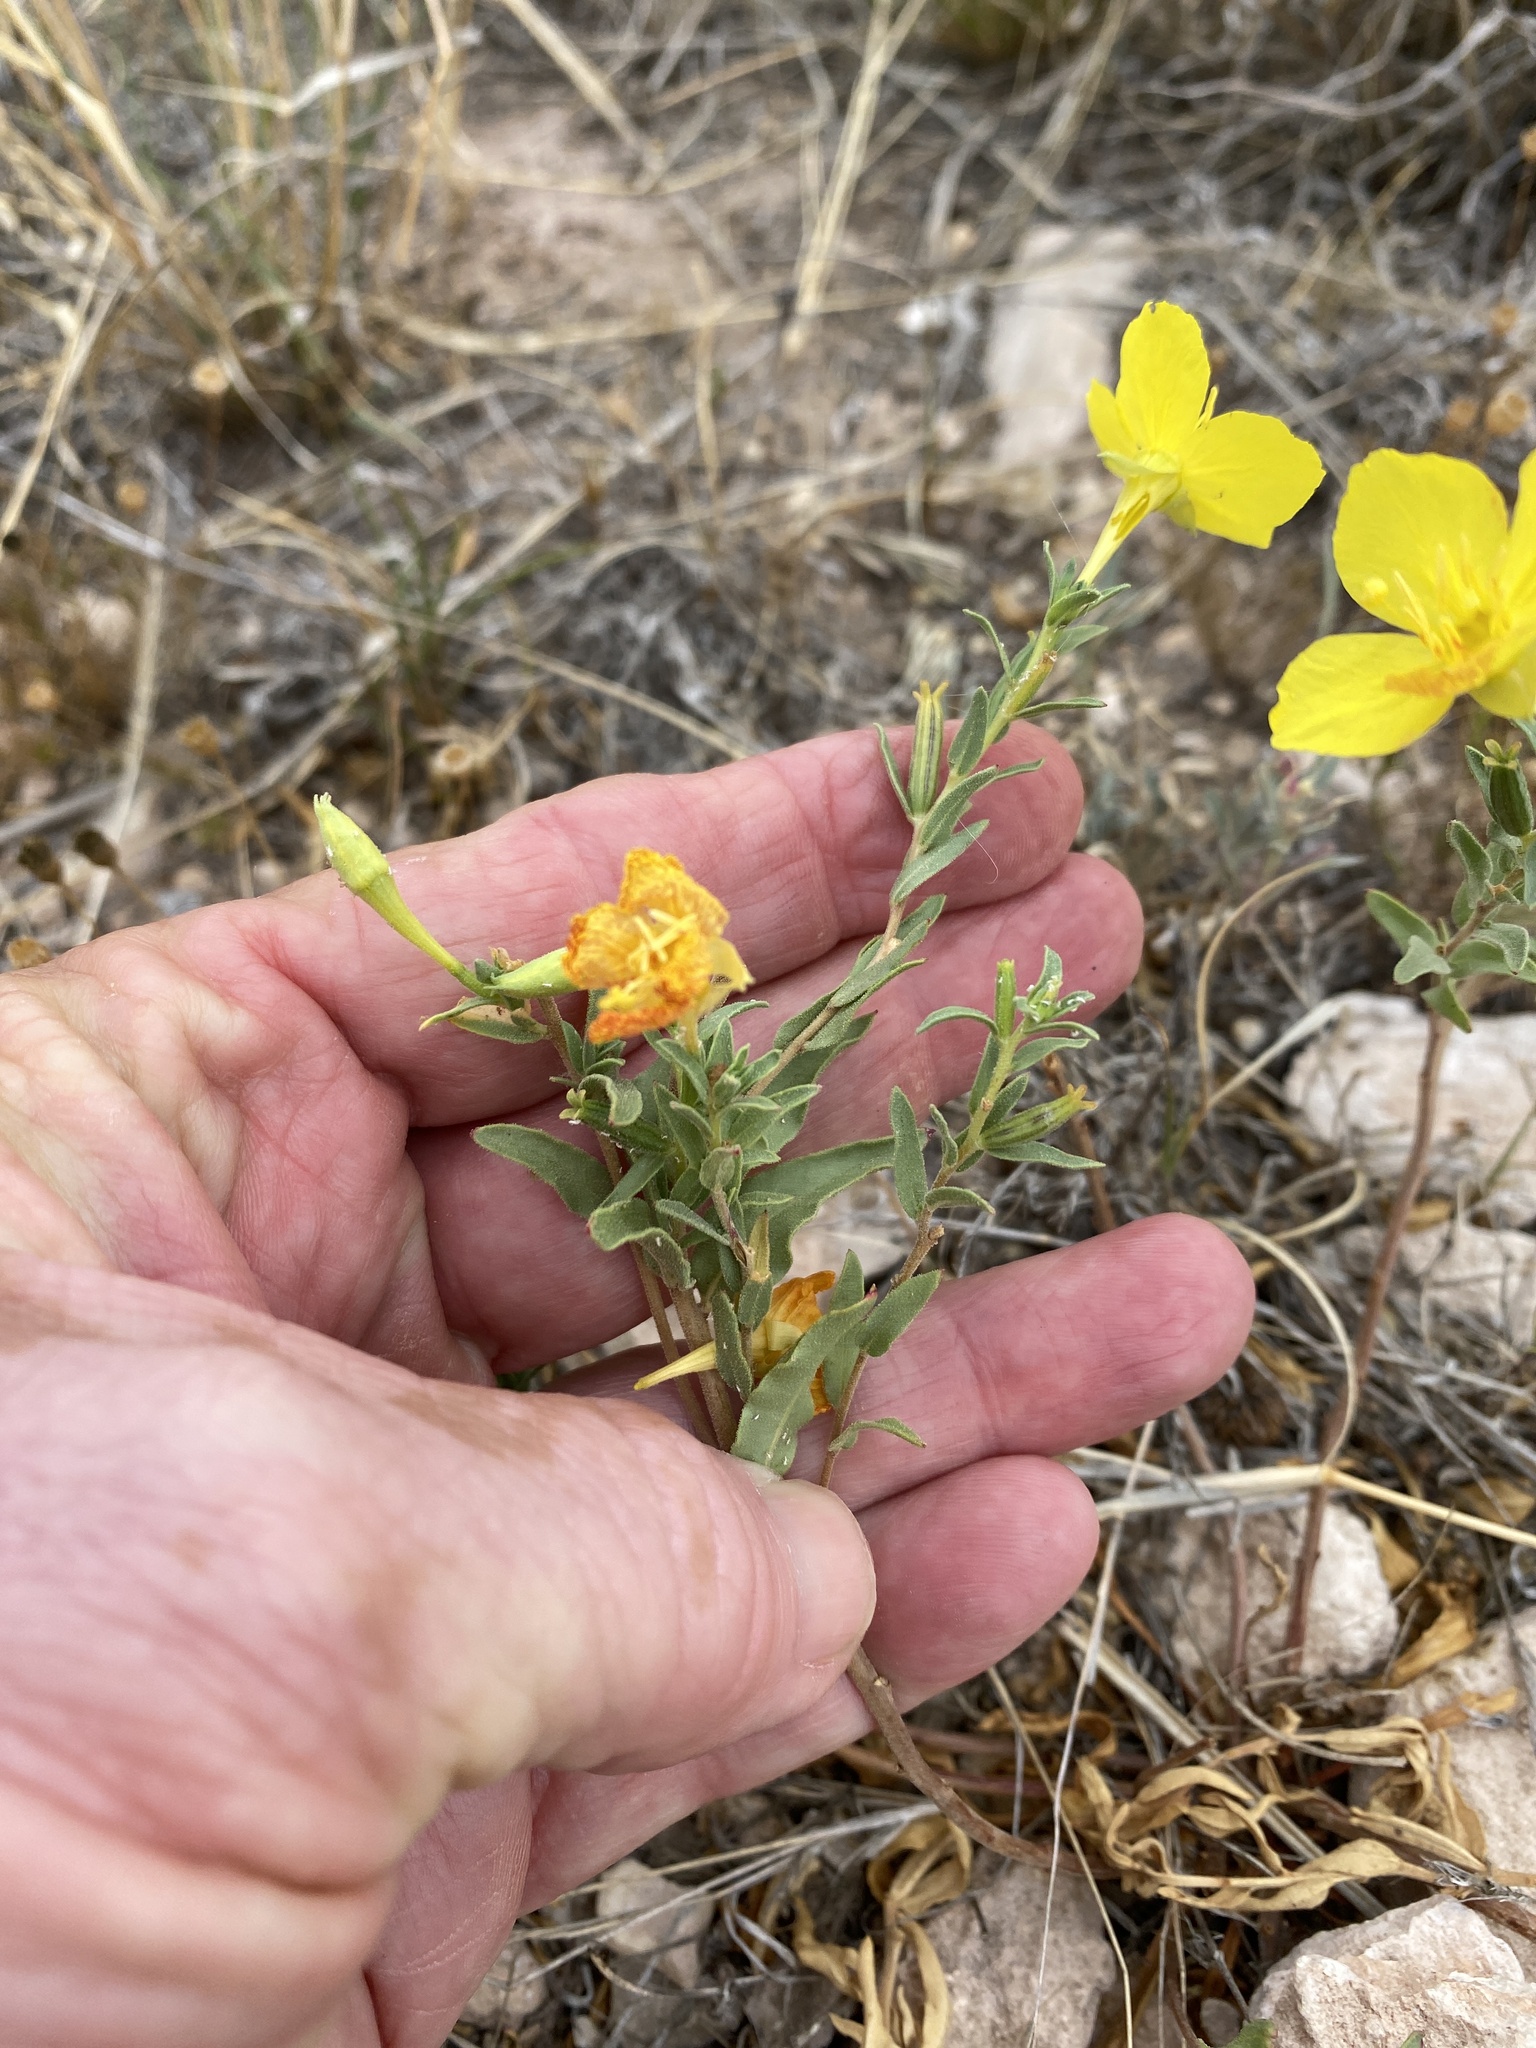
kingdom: Plantae
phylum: Tracheophyta
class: Magnoliopsida
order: Myrtales
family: Onagraceae
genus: Oenothera
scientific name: Oenothera tubicula
